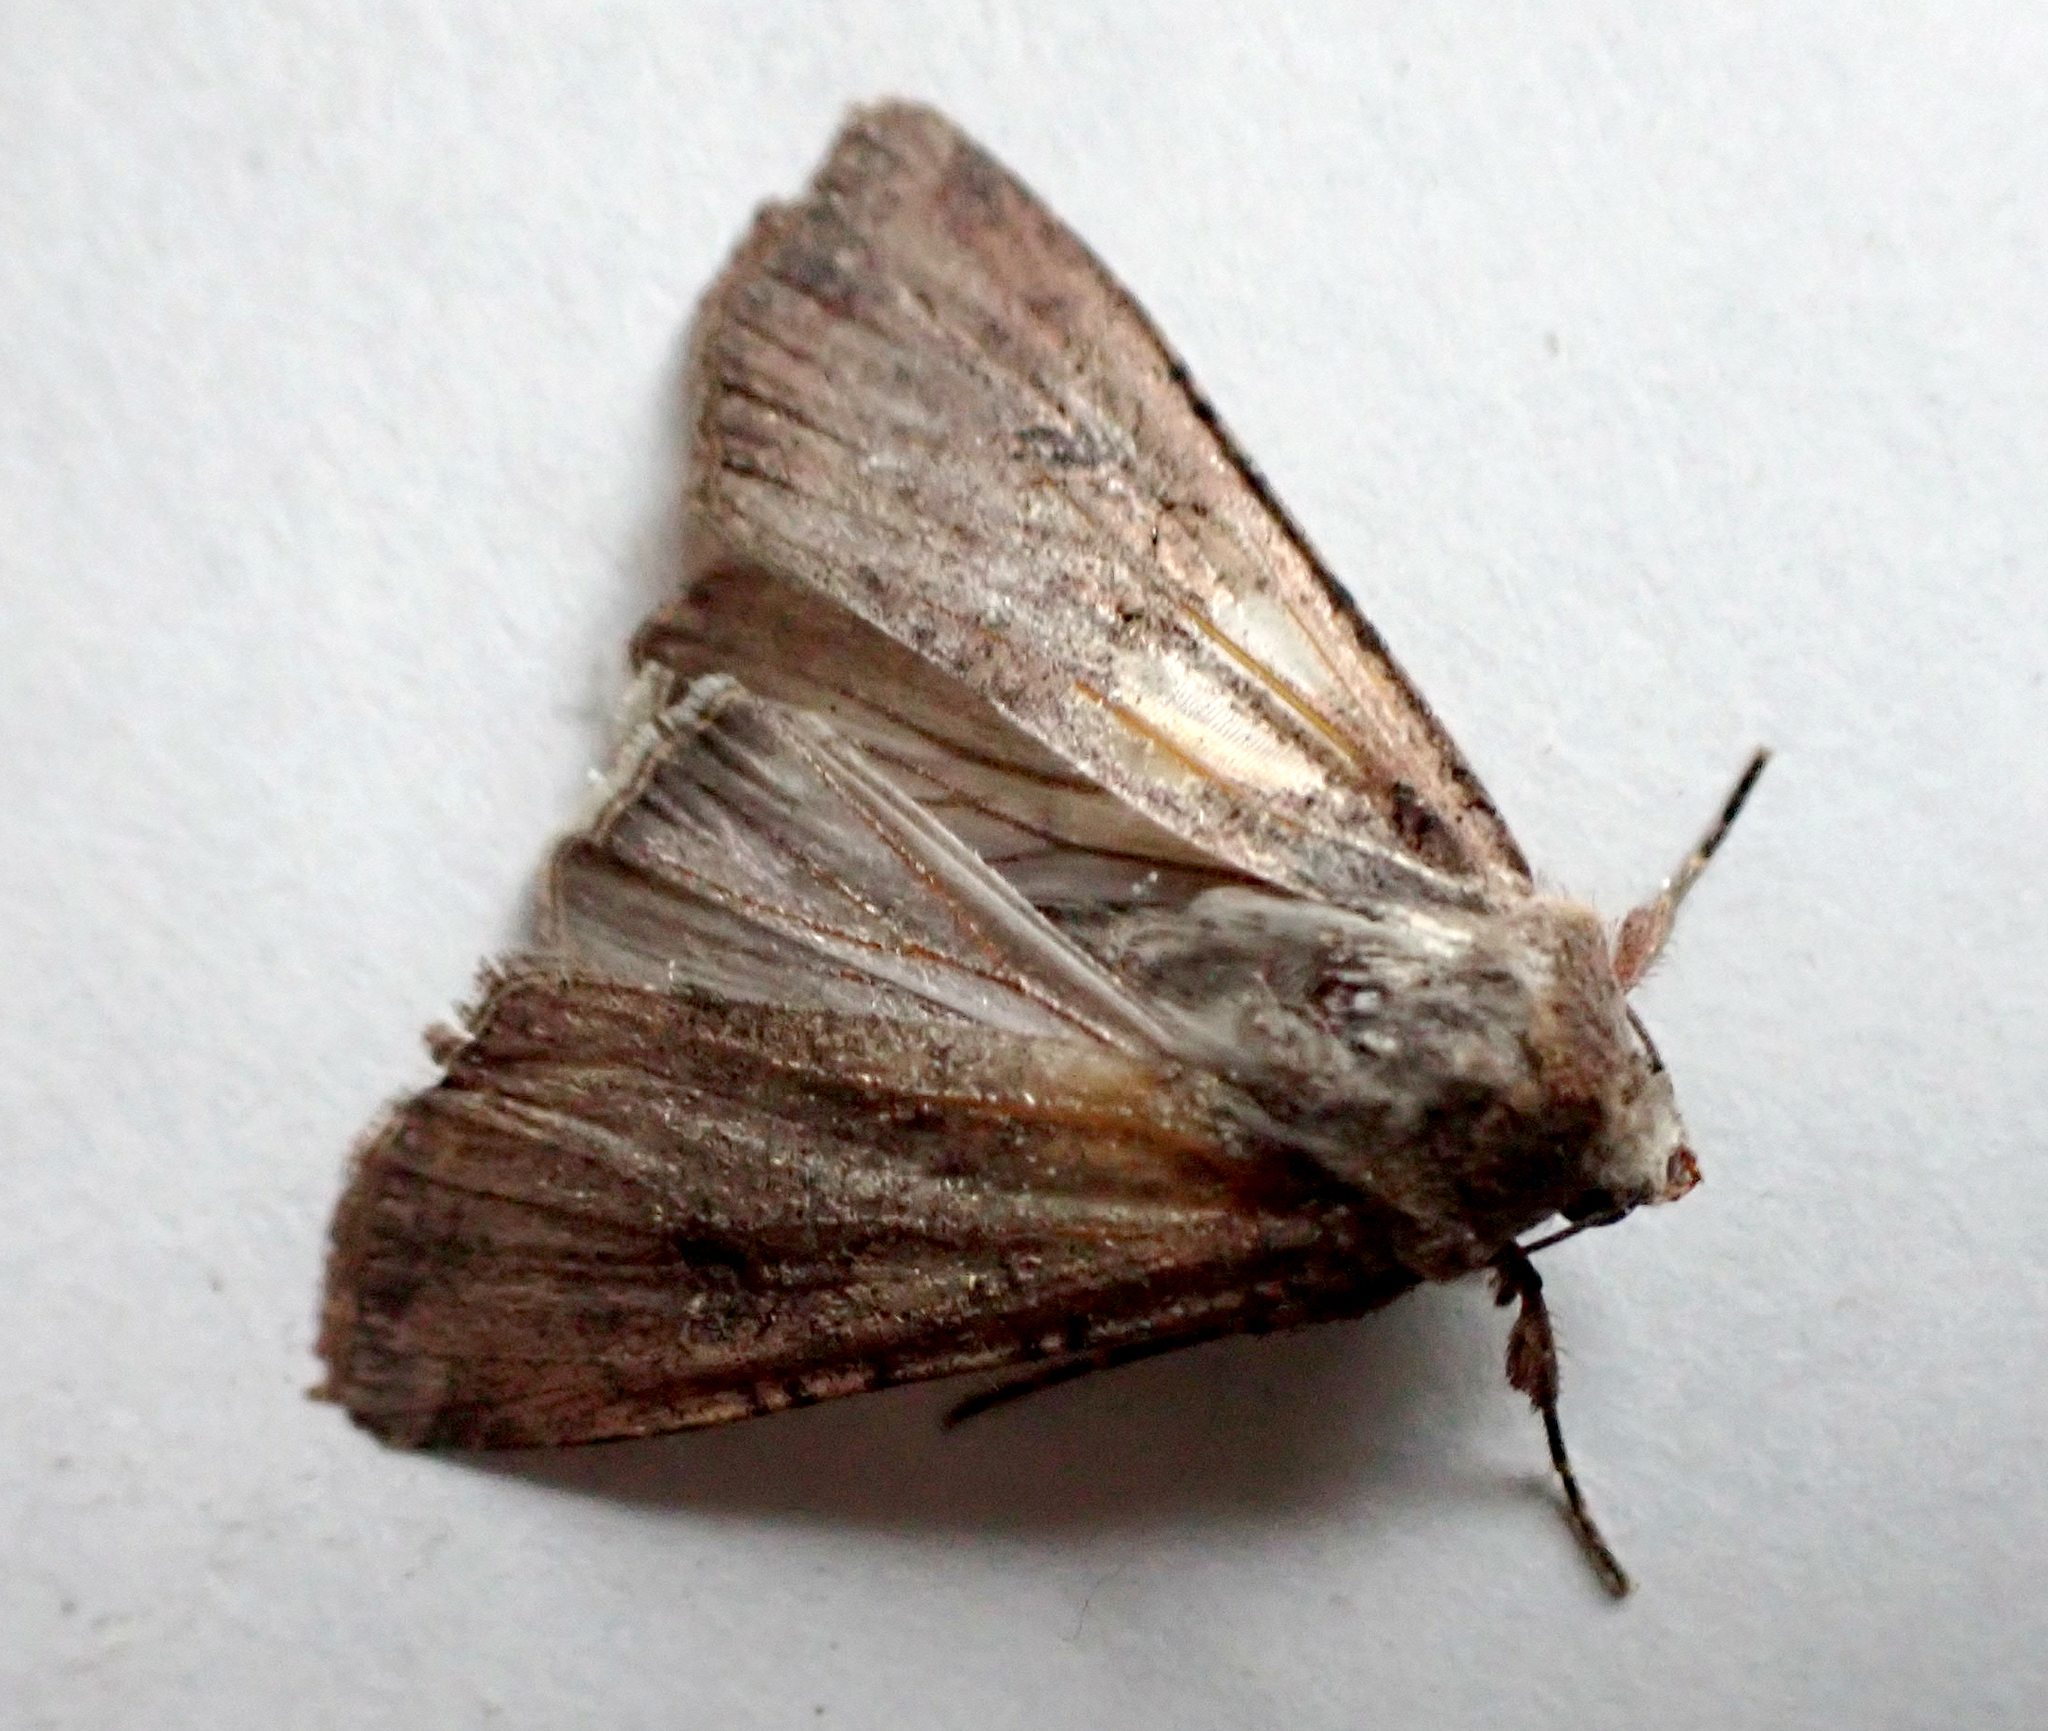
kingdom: Animalia
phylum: Arthropoda
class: Insecta
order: Lepidoptera
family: Noctuidae
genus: Peridroma
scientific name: Peridroma saucia
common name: Pearly underwing
